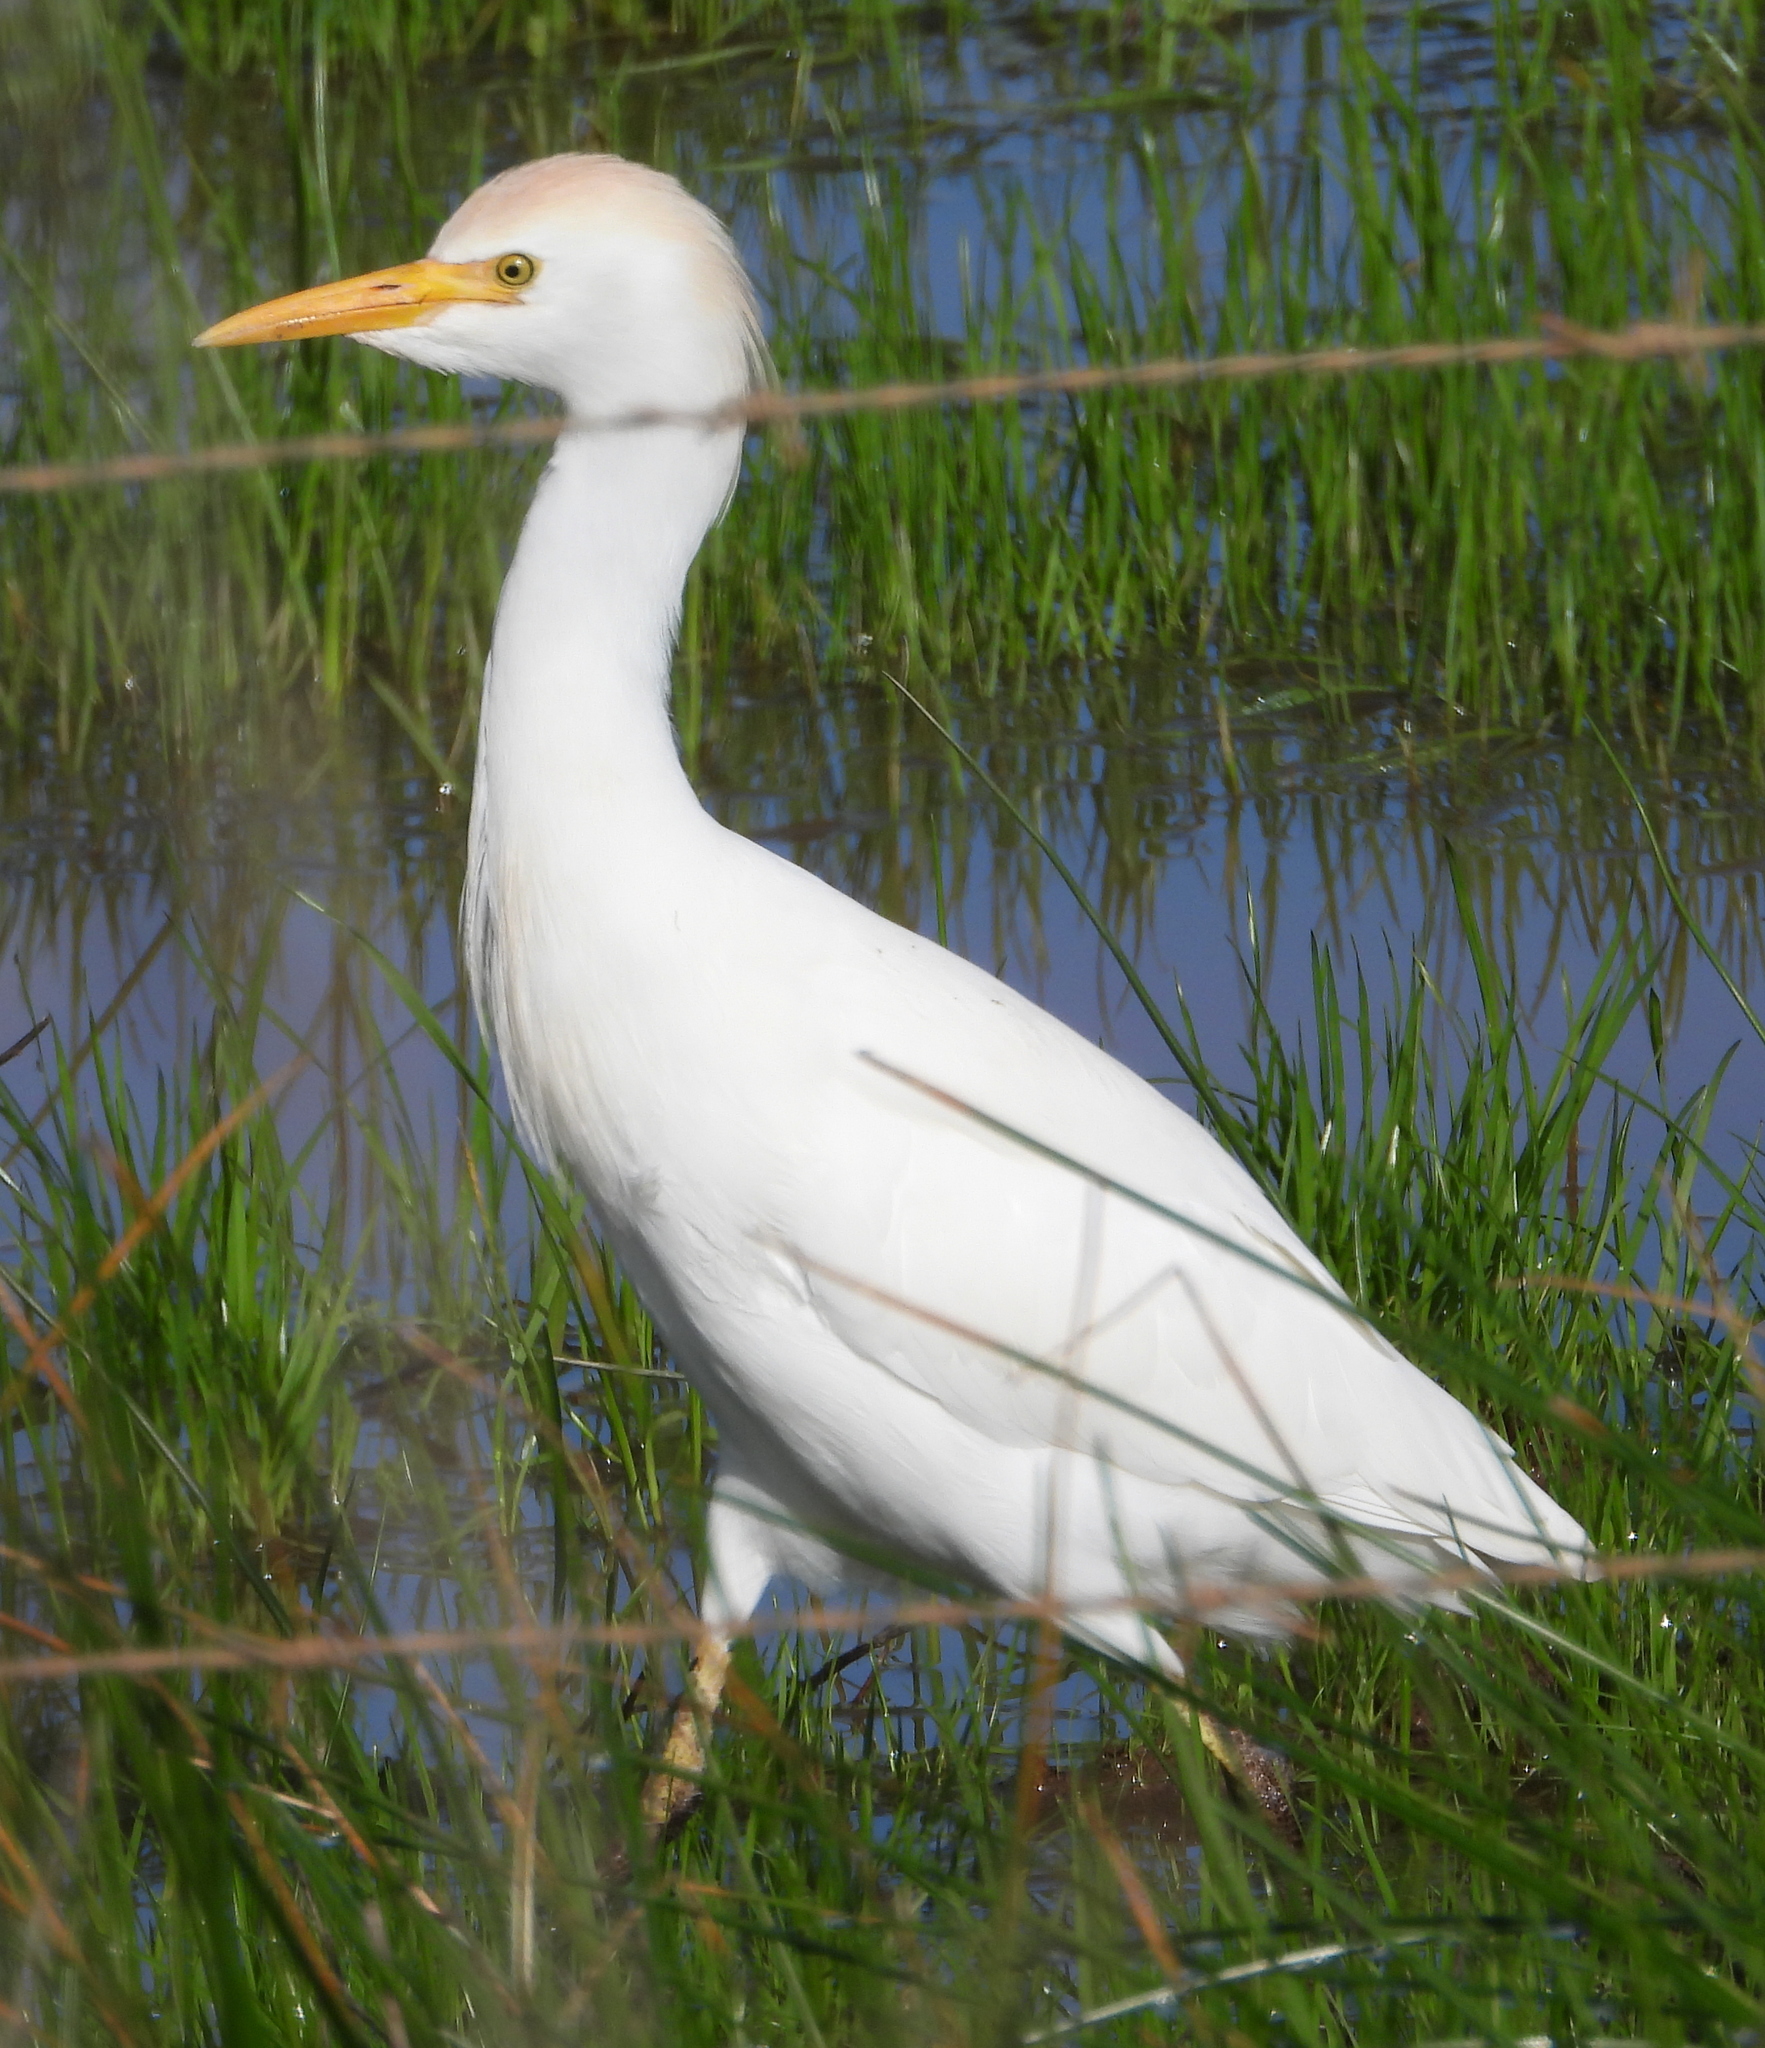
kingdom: Animalia
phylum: Chordata
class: Aves
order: Pelecaniformes
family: Ardeidae
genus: Bubulcus
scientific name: Bubulcus ibis
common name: Cattle egret
